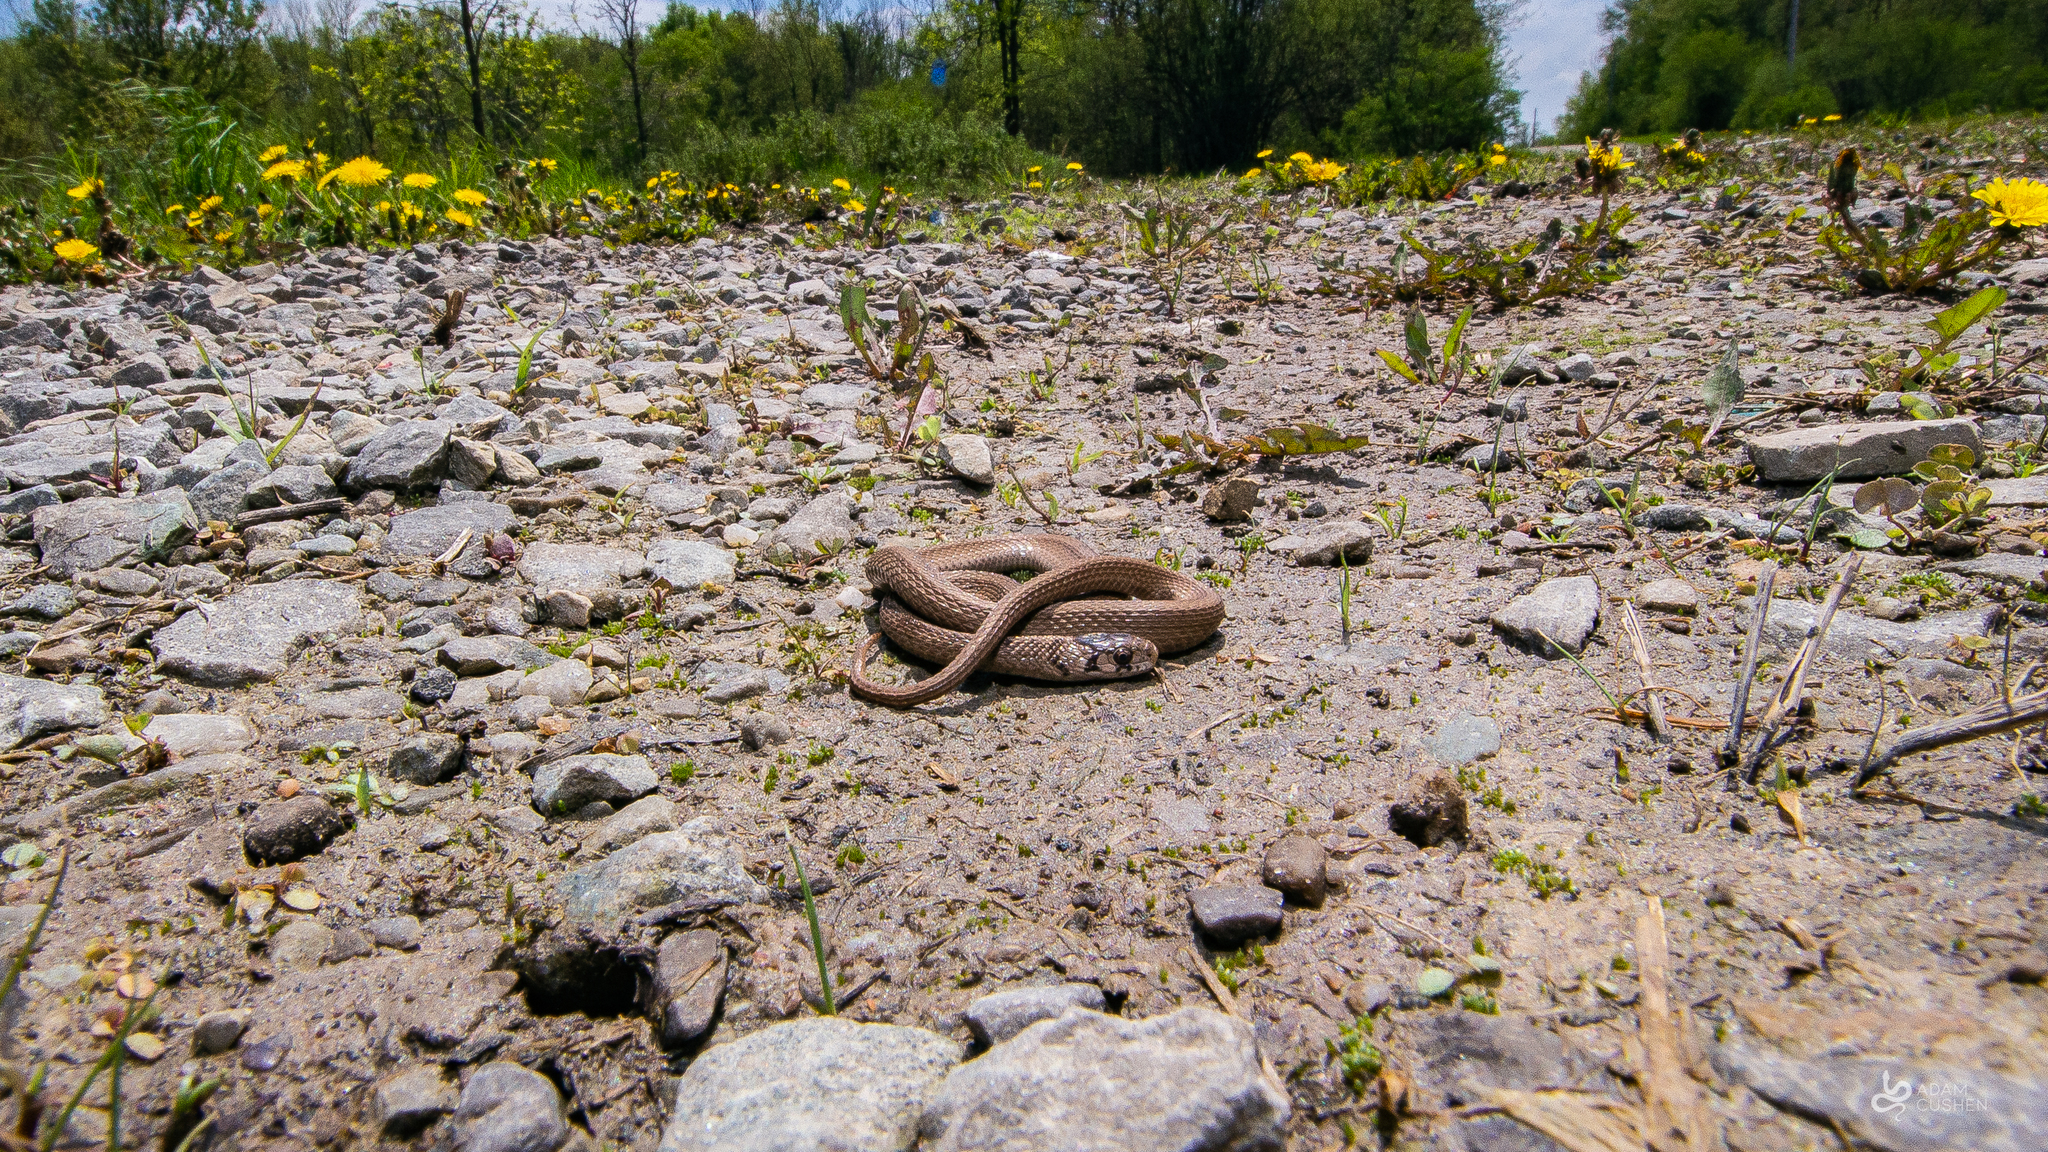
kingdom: Animalia
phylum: Chordata
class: Squamata
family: Colubridae
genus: Storeria
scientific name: Storeria dekayi
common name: (dekay’s) brown snake
